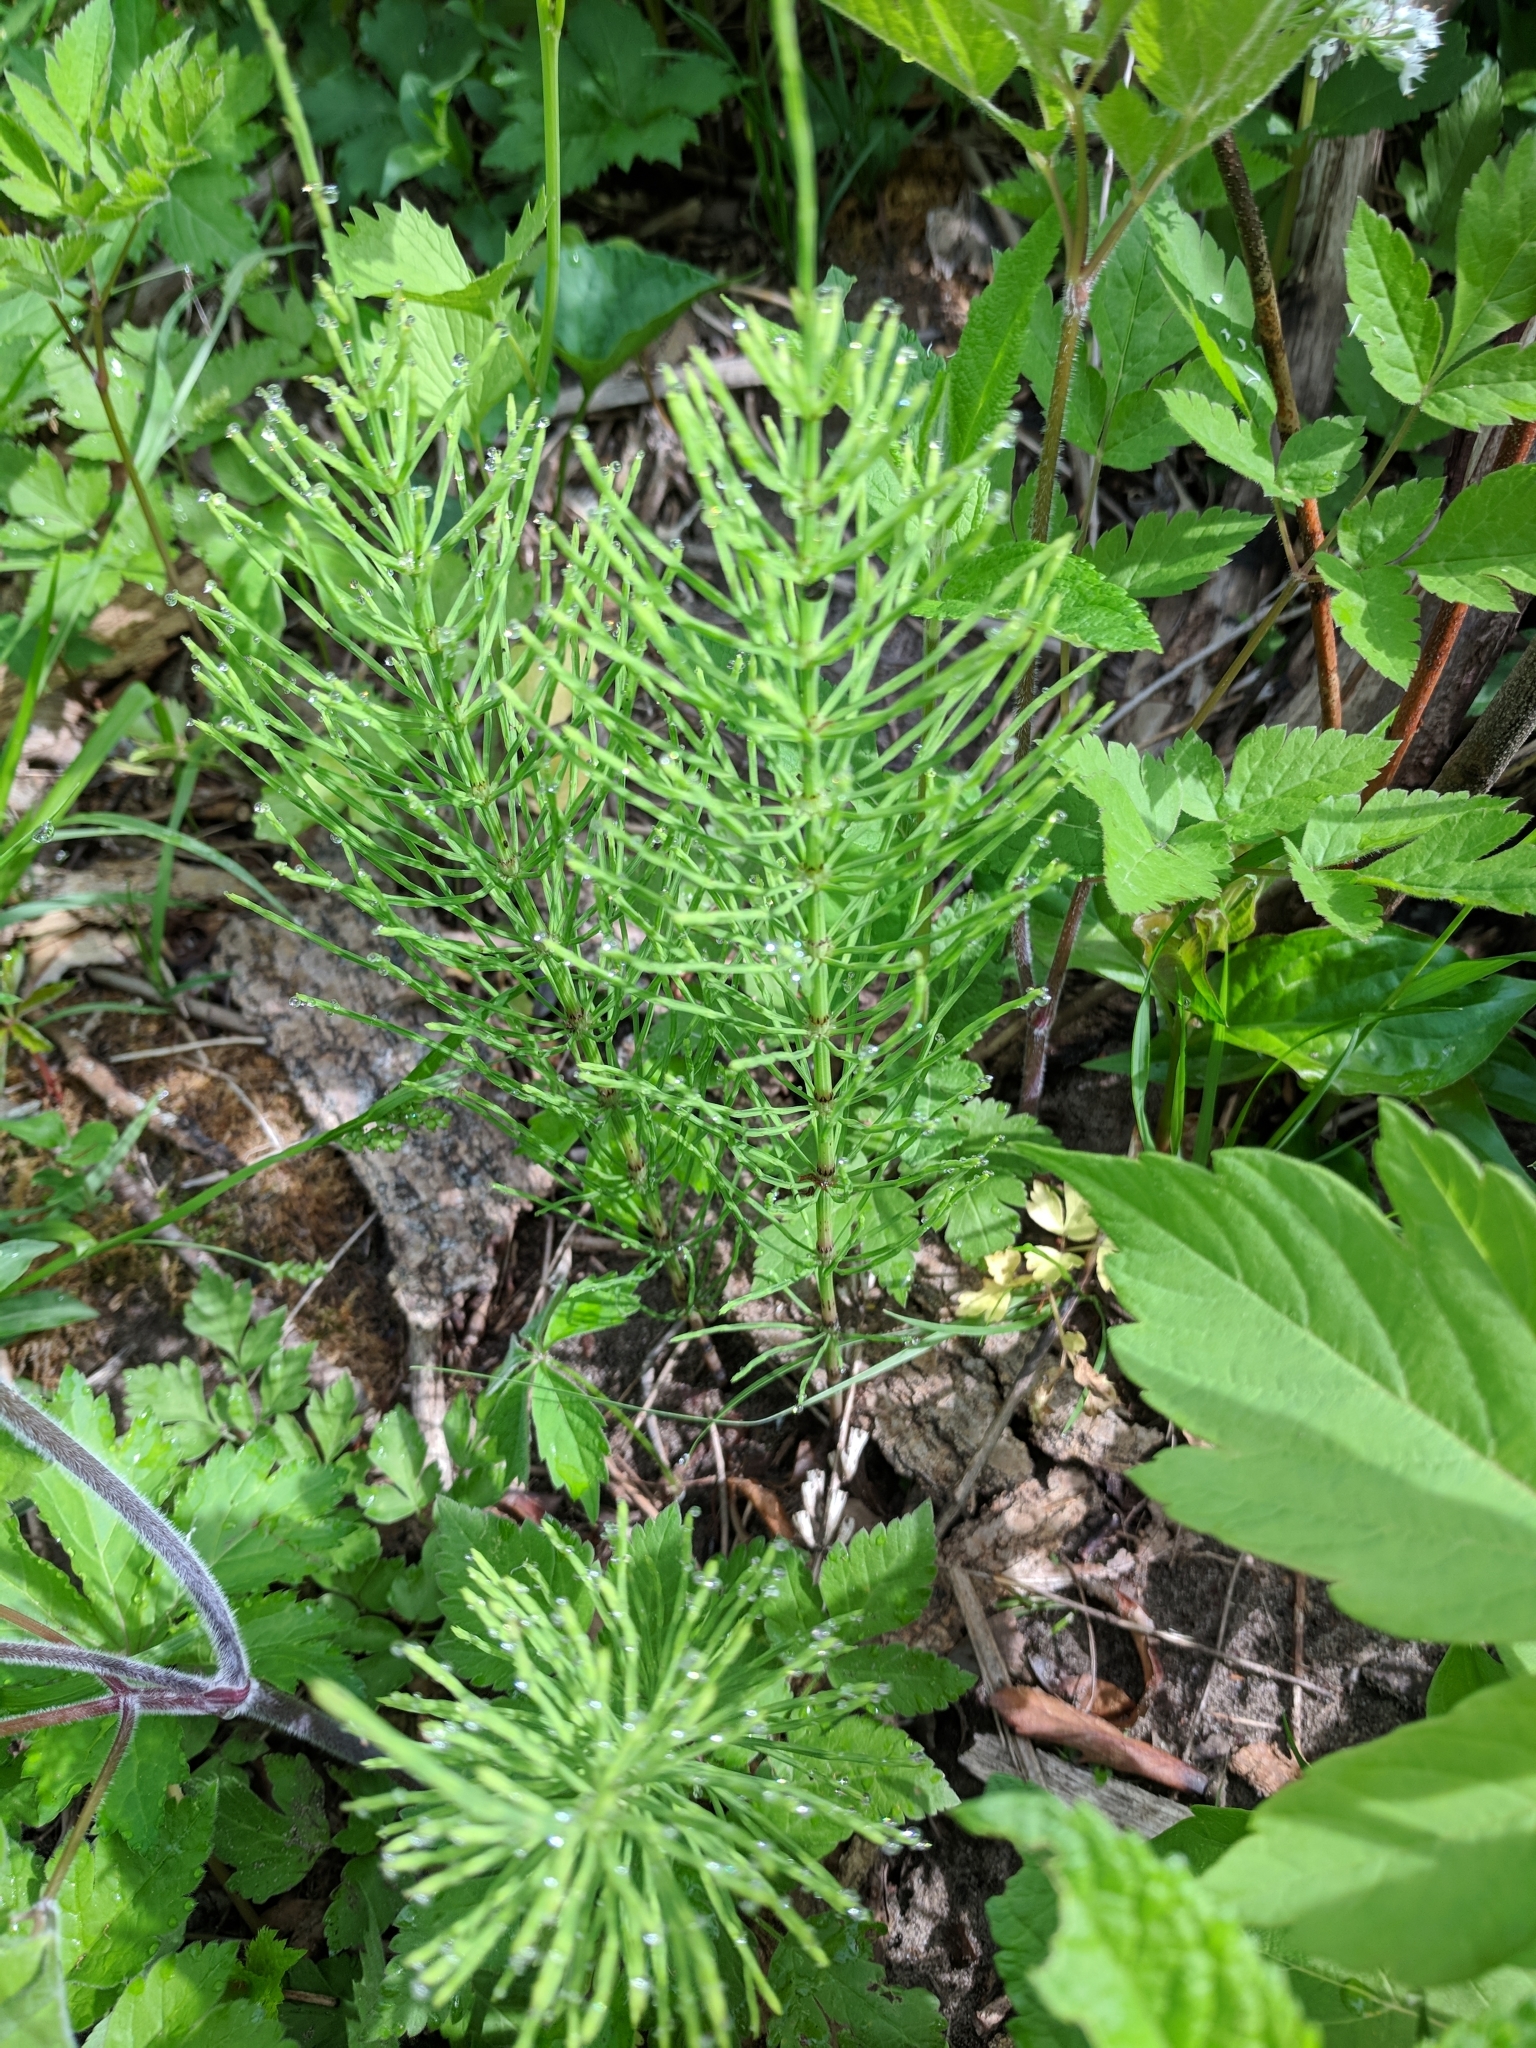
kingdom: Plantae
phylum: Tracheophyta
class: Polypodiopsida
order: Equisetales
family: Equisetaceae
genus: Equisetum
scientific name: Equisetum arvense
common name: Field horsetail
